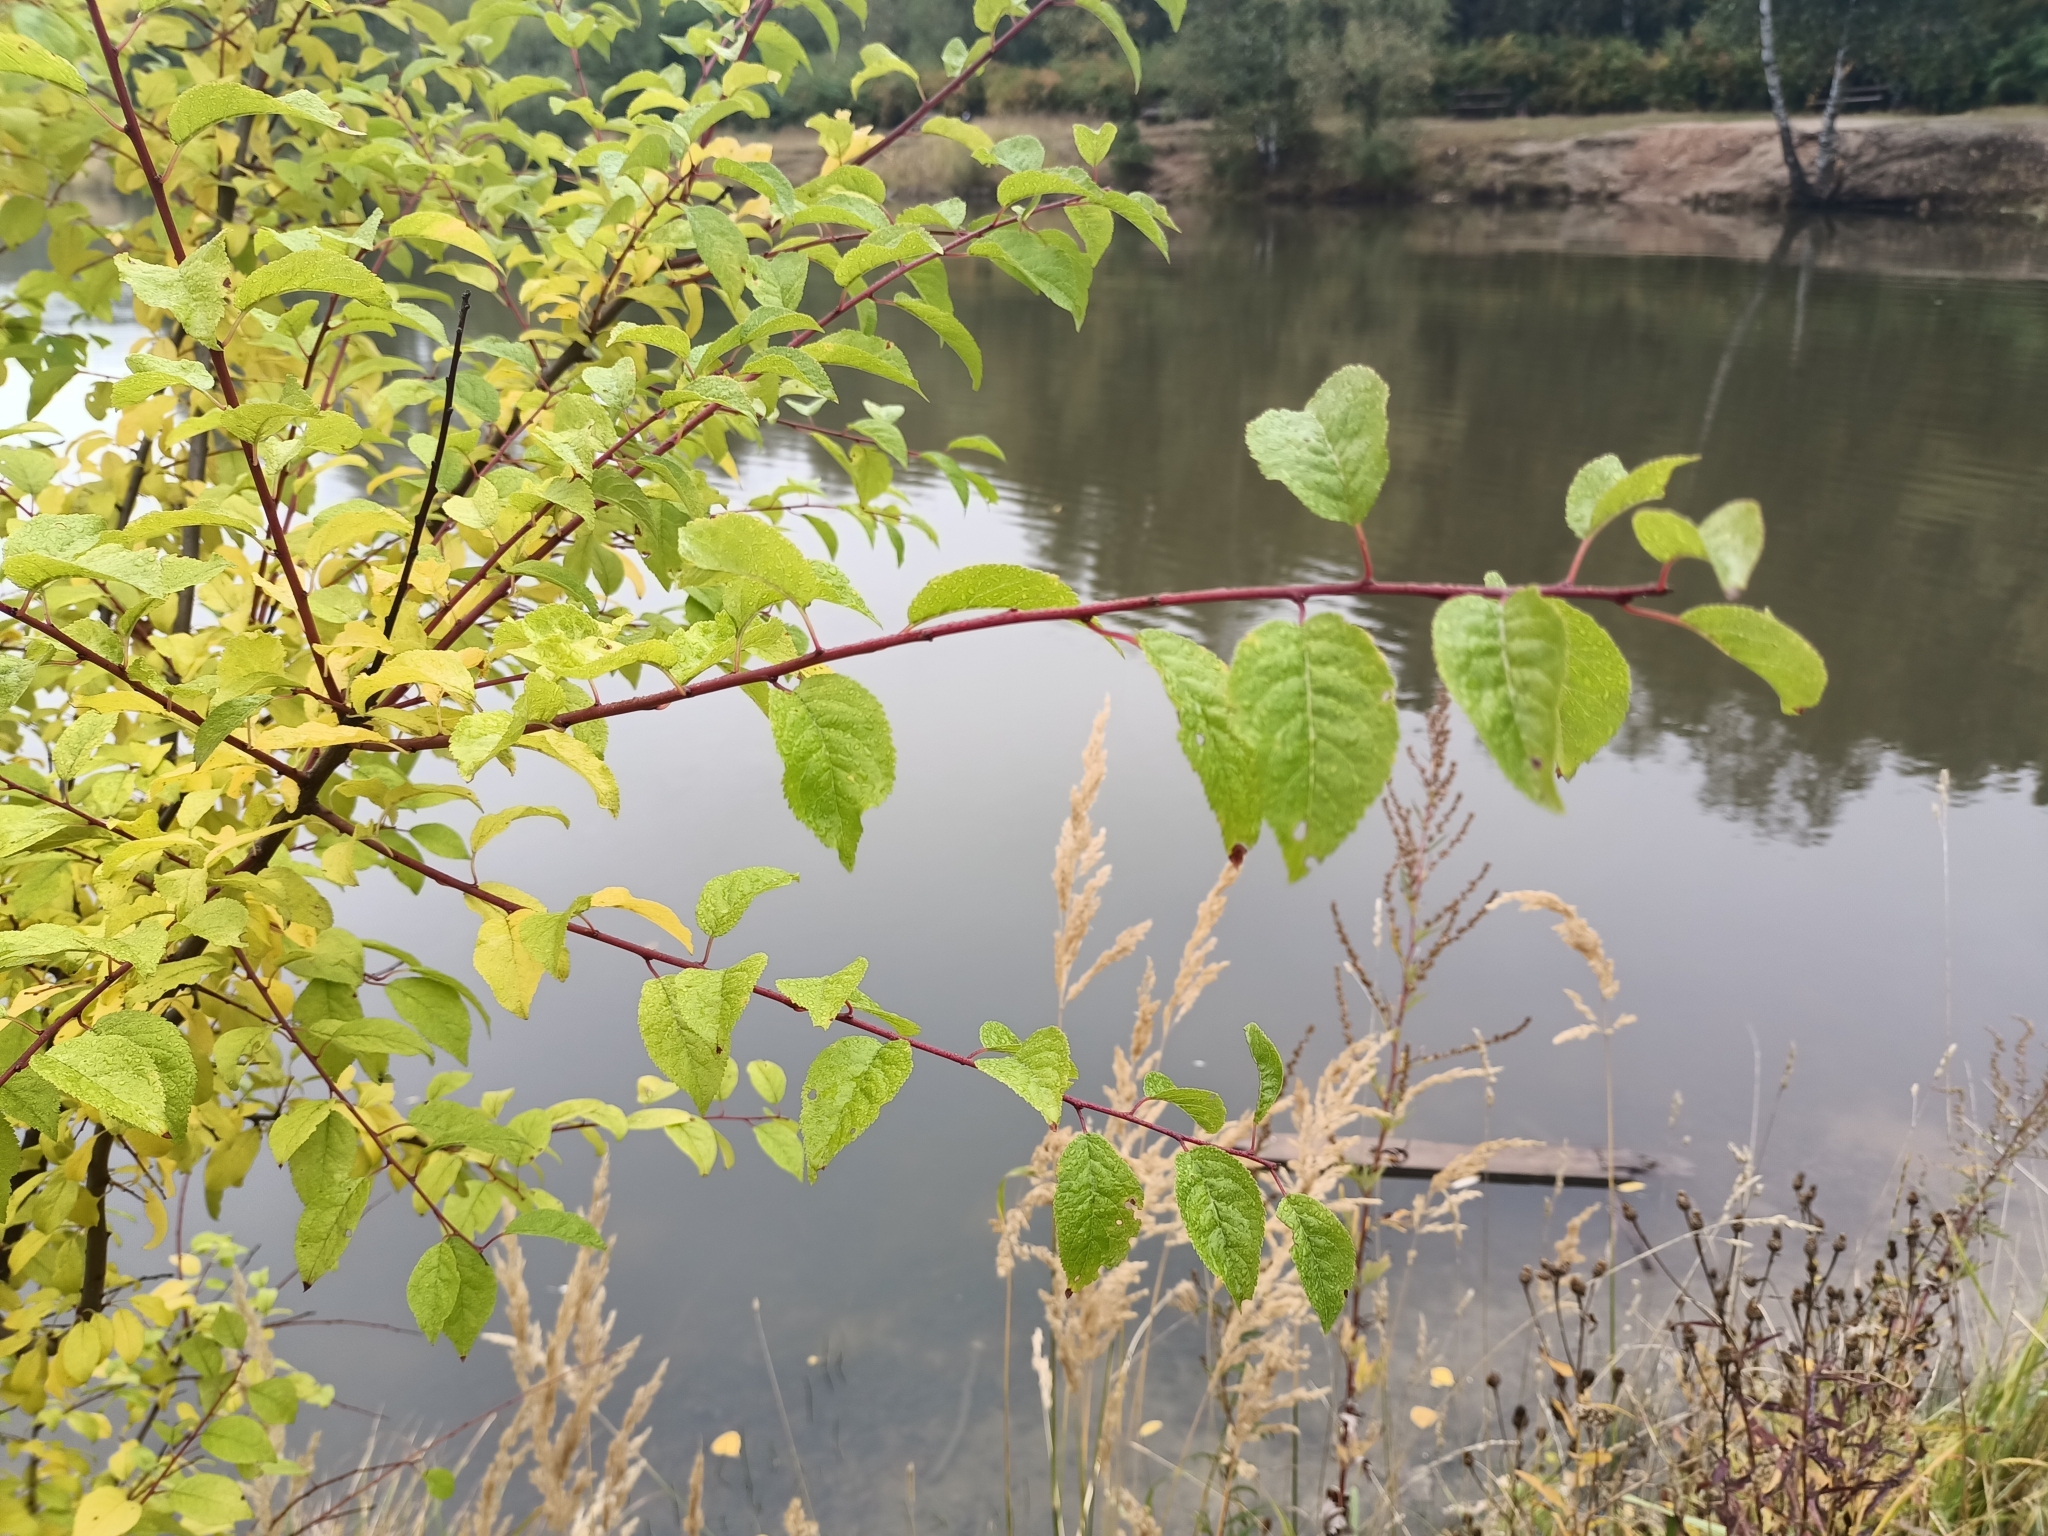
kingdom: Plantae
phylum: Tracheophyta
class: Magnoliopsida
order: Rosales
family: Rosaceae
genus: Prunus
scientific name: Prunus cerasifera
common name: Cherry plum
